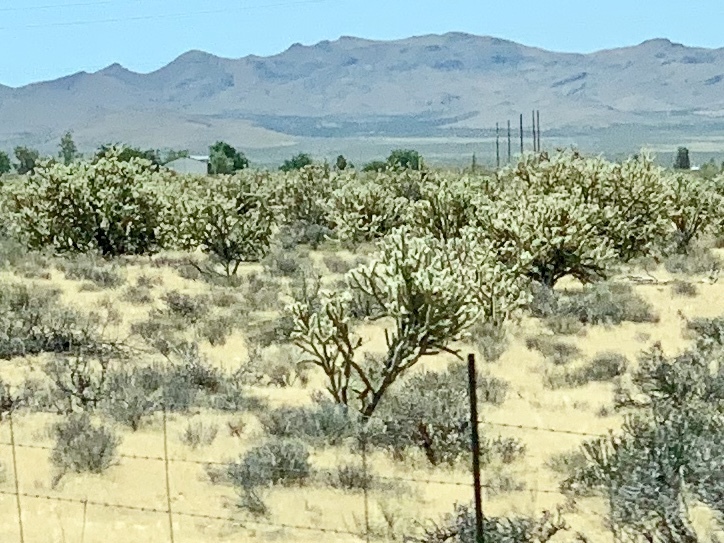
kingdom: Plantae
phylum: Tracheophyta
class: Magnoliopsida
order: Caryophyllales
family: Cactaceae
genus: Cylindropuntia
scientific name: Cylindropuntia acanthocarpa
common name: Buckhorn cholla
